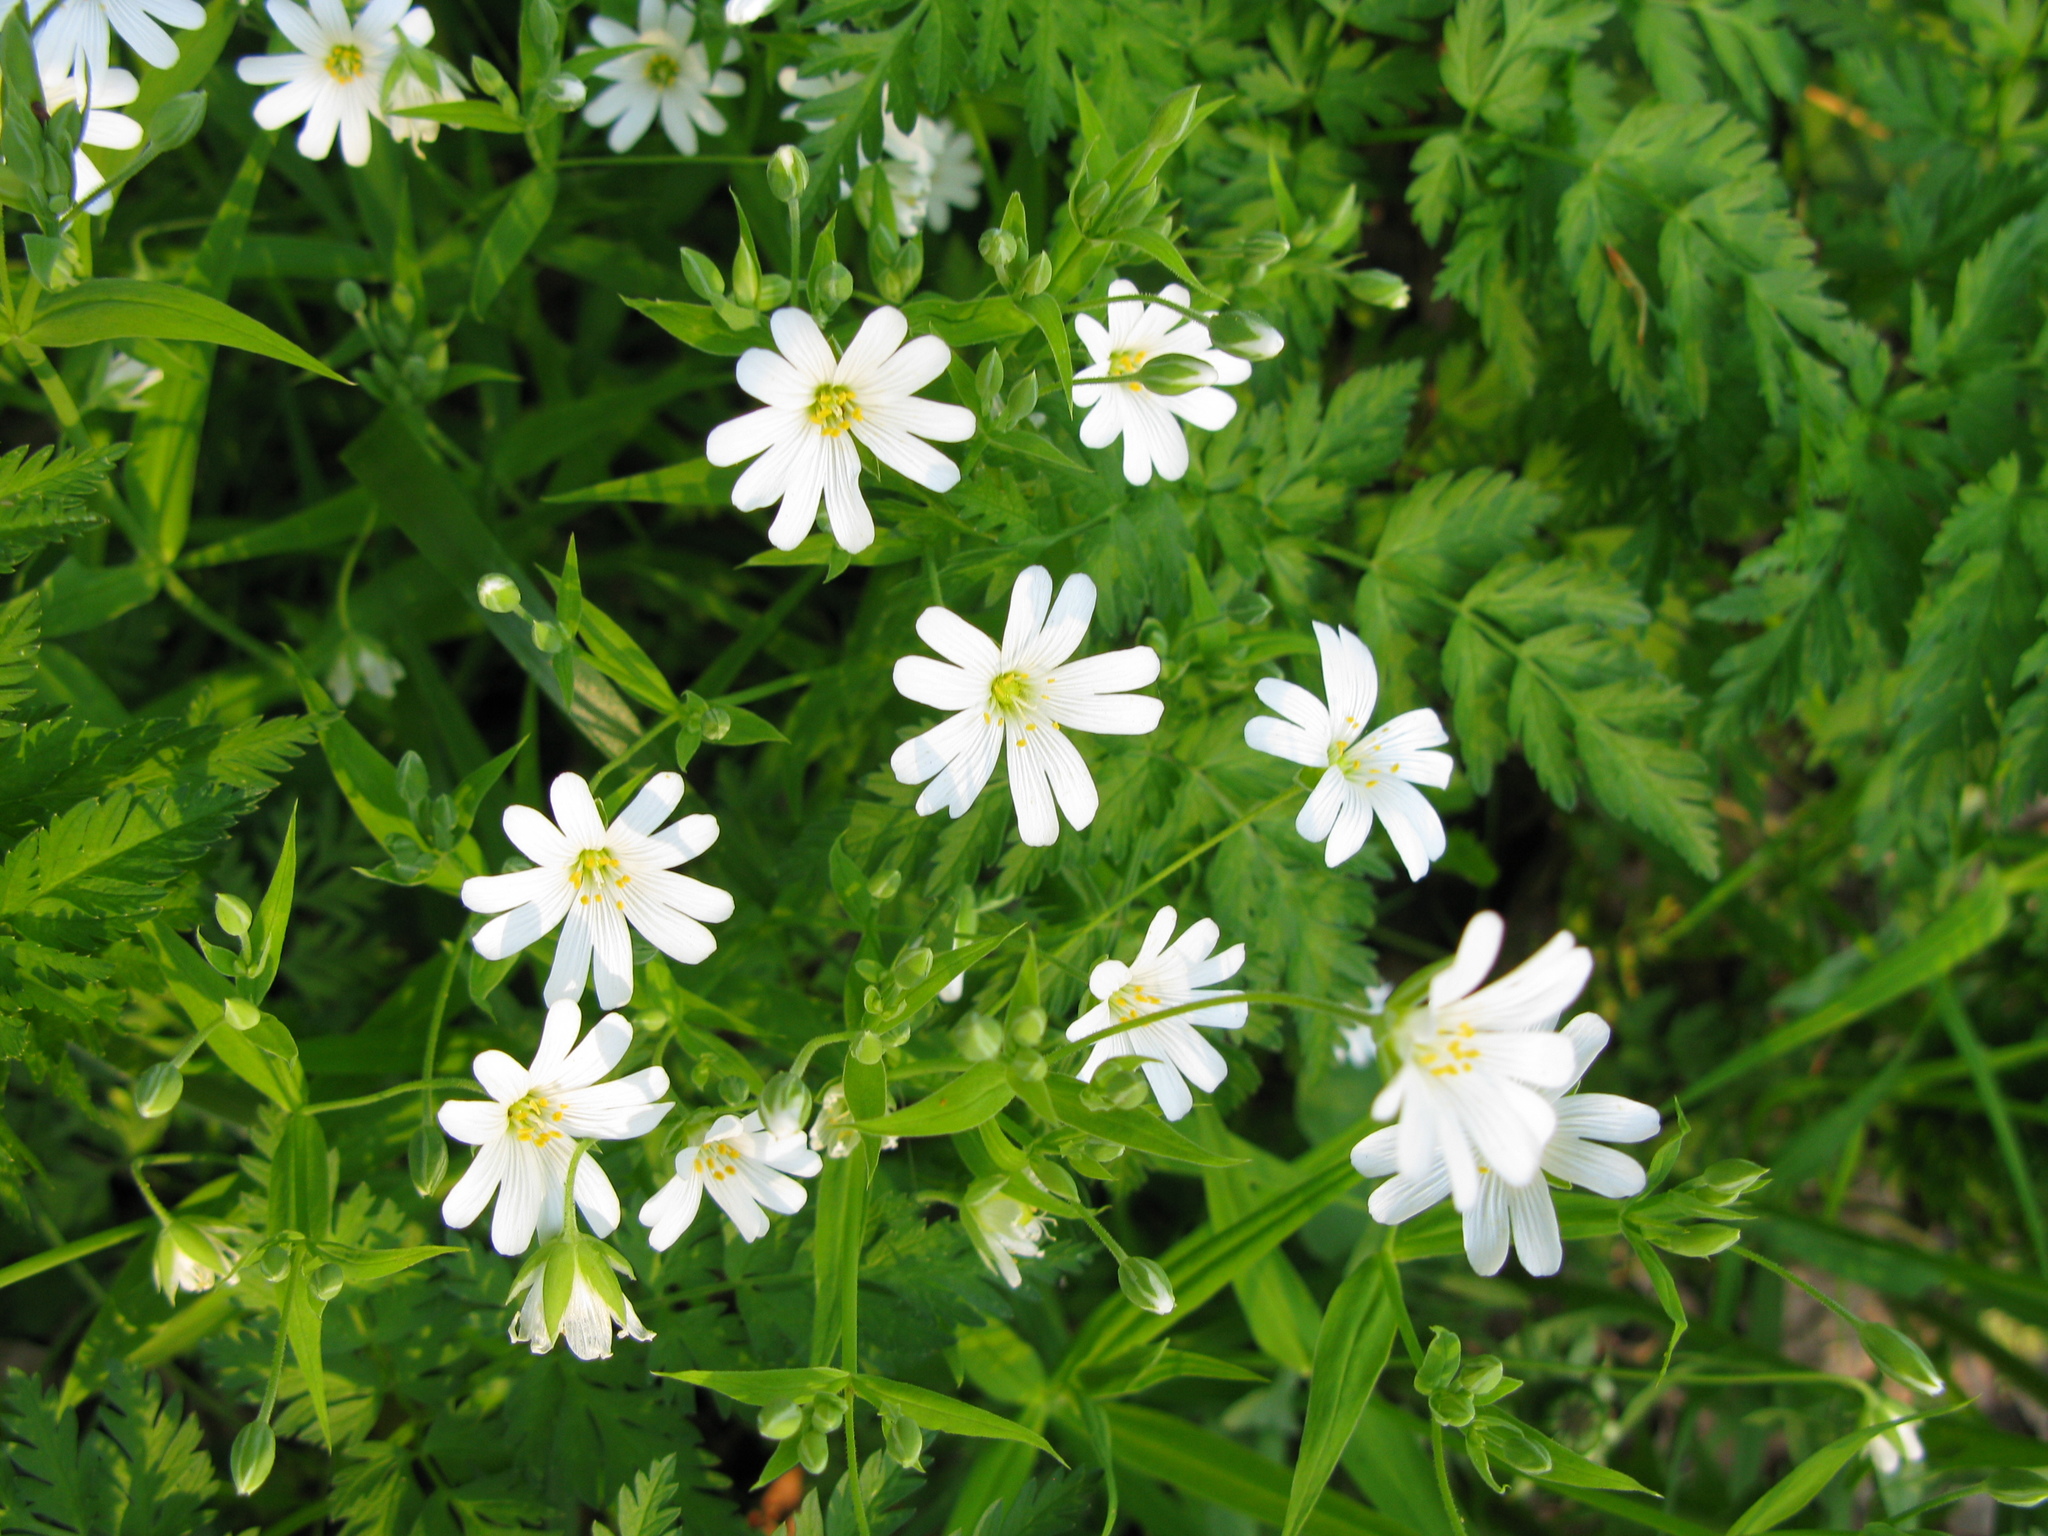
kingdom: Plantae
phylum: Tracheophyta
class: Magnoliopsida
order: Caryophyllales
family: Caryophyllaceae
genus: Rabelera
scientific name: Rabelera holostea
